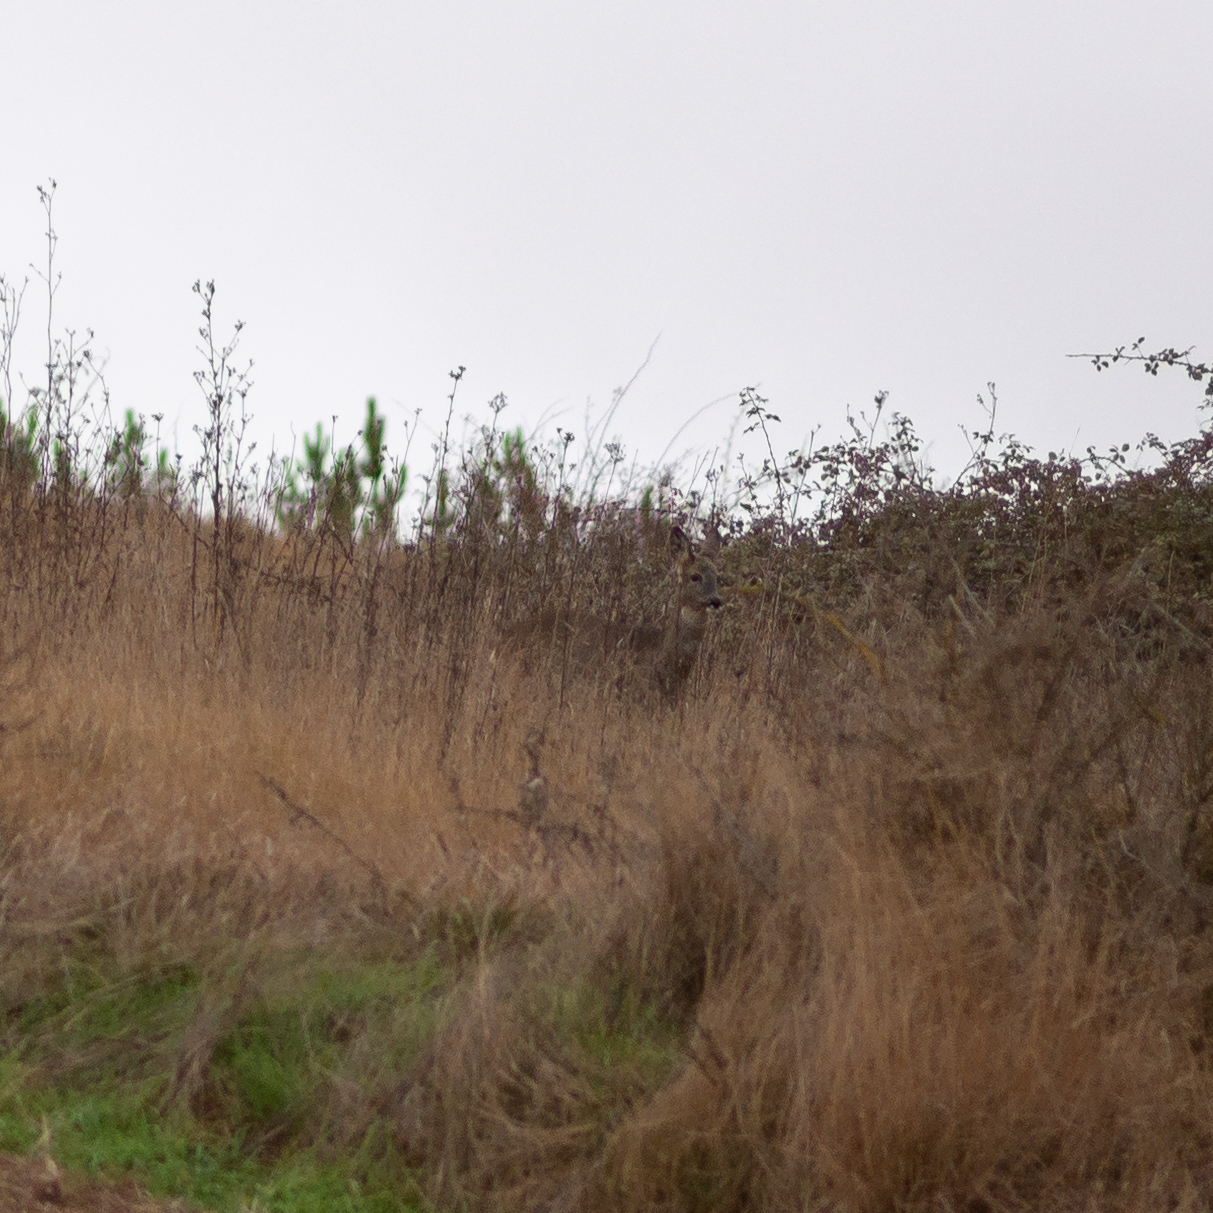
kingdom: Animalia
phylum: Chordata
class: Mammalia
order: Artiodactyla
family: Cervidae
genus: Capreolus
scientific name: Capreolus capreolus
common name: Western roe deer
